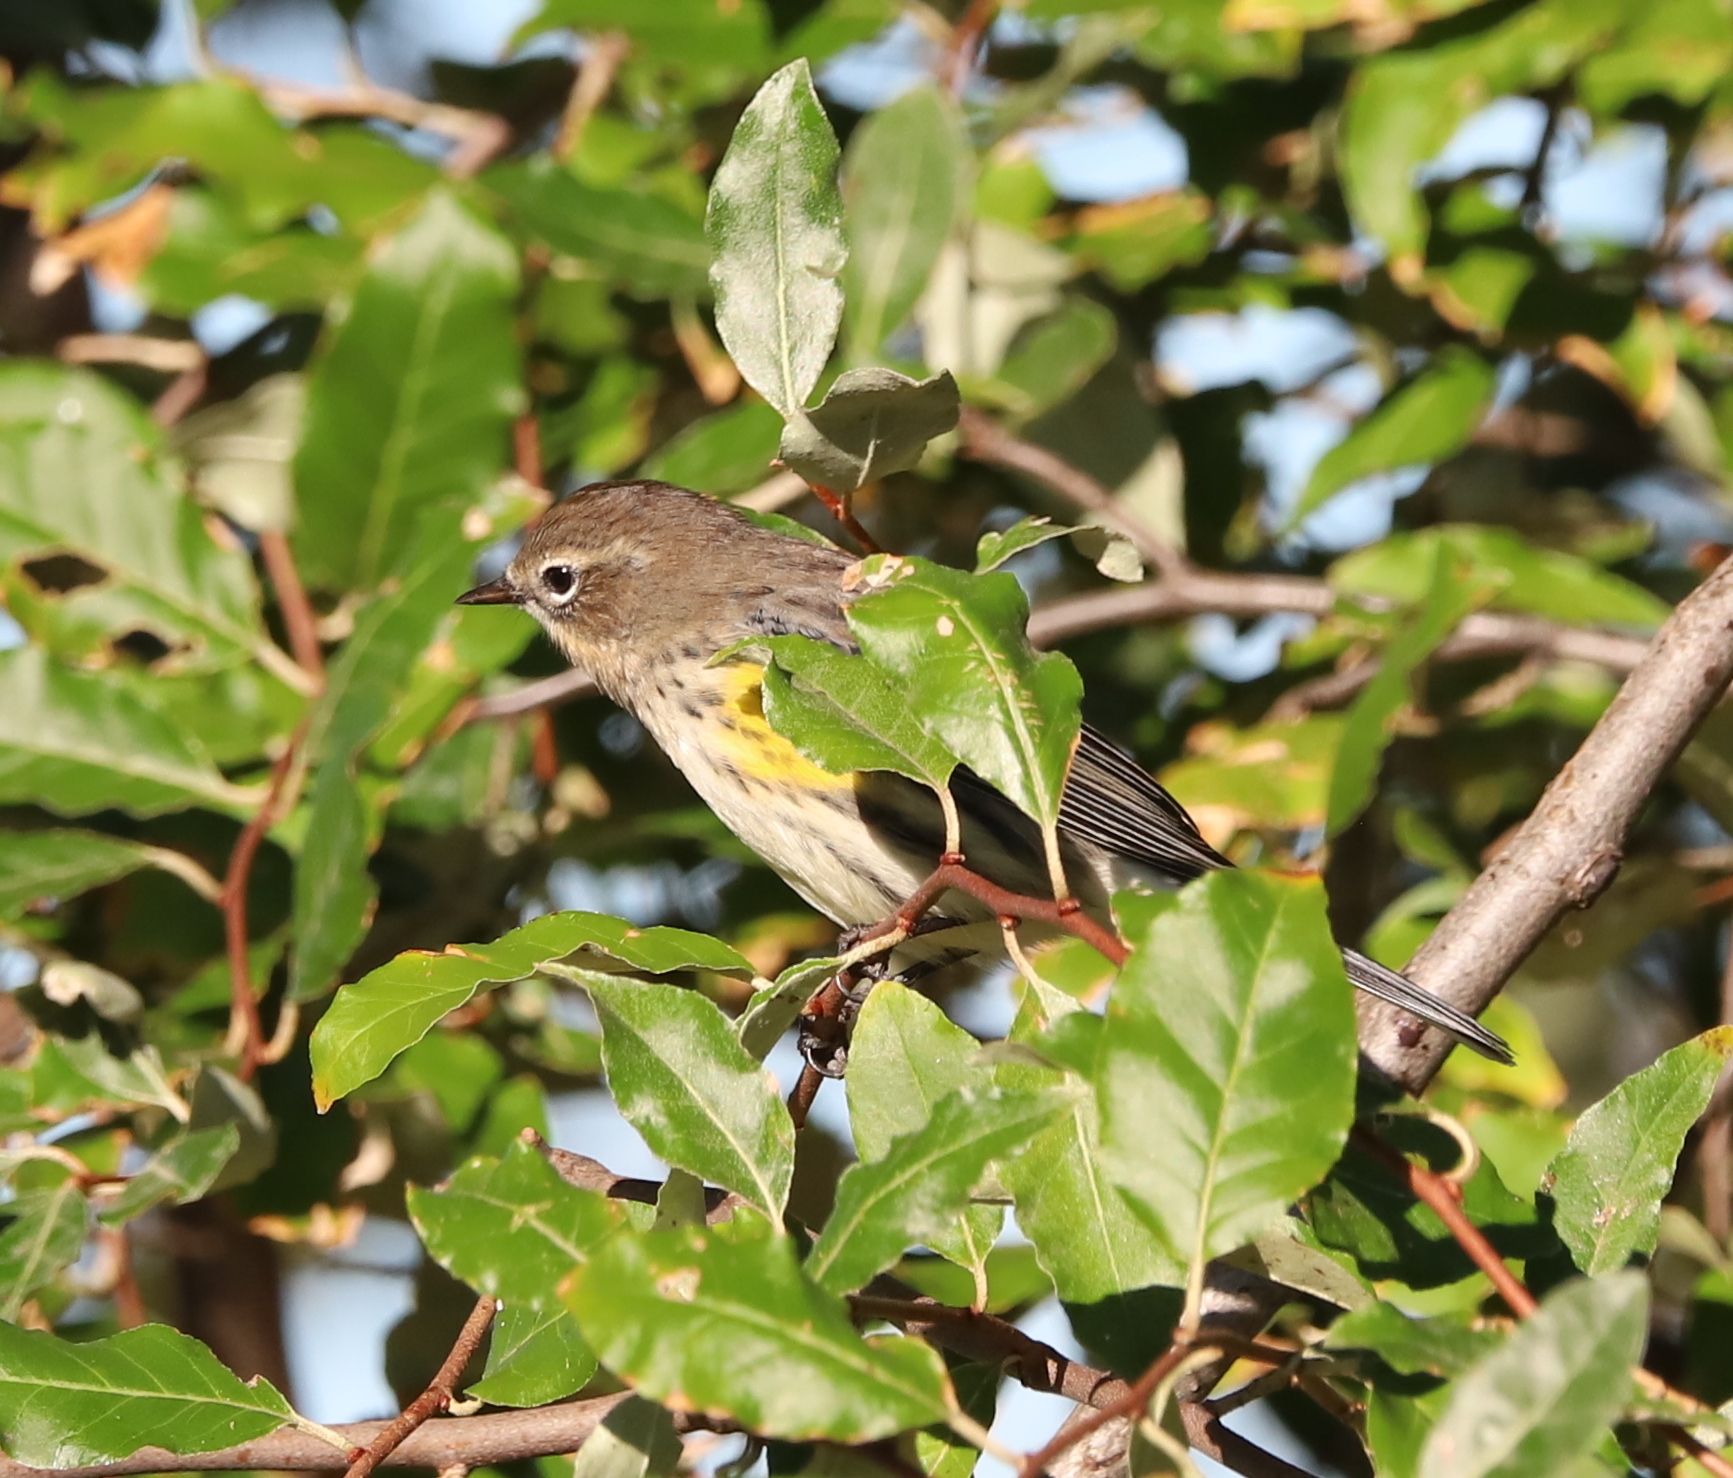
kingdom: Animalia
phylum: Chordata
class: Aves
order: Passeriformes
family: Parulidae
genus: Setophaga
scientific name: Setophaga coronata
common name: Myrtle warbler
